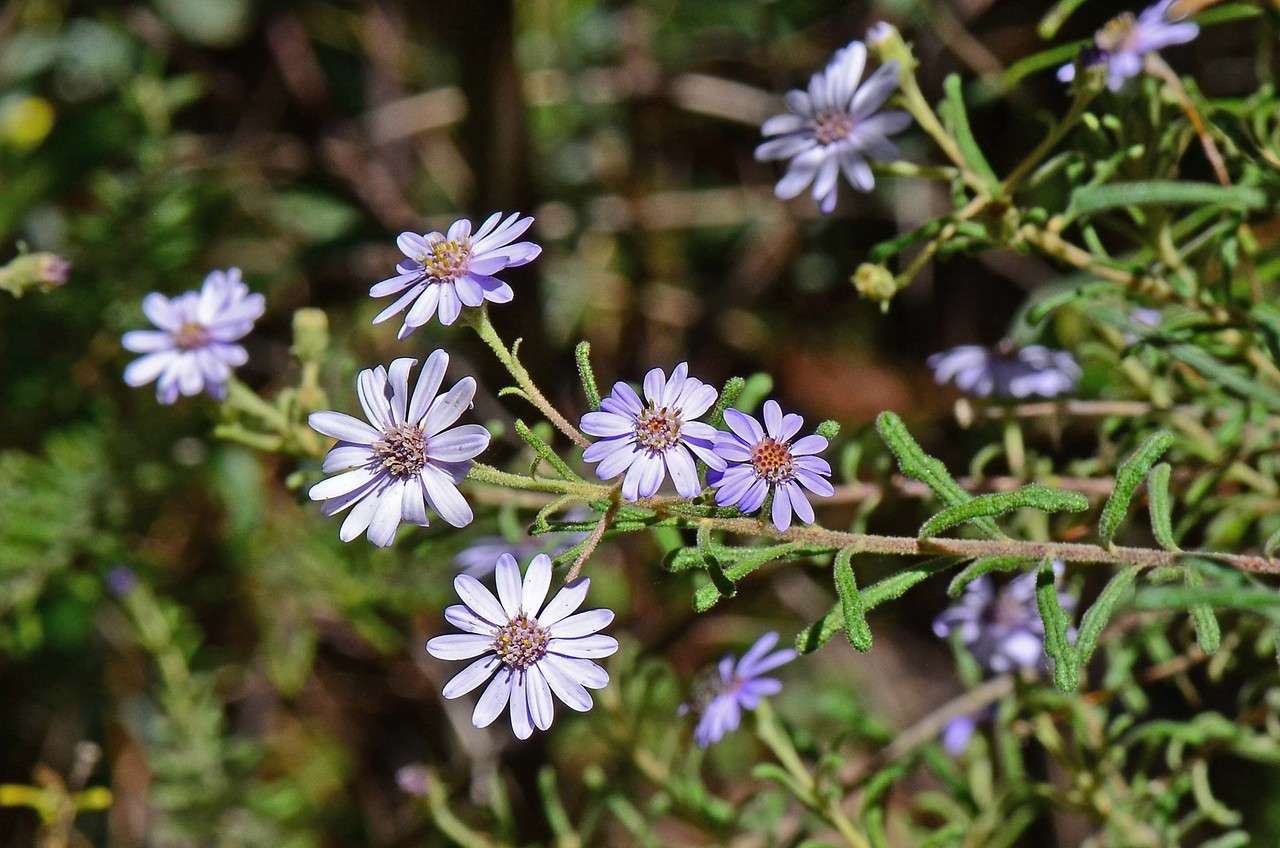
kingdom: Plantae
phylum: Tracheophyta
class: Magnoliopsida
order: Asterales
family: Asteraceae
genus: Olearia
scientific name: Olearia asterotricha
